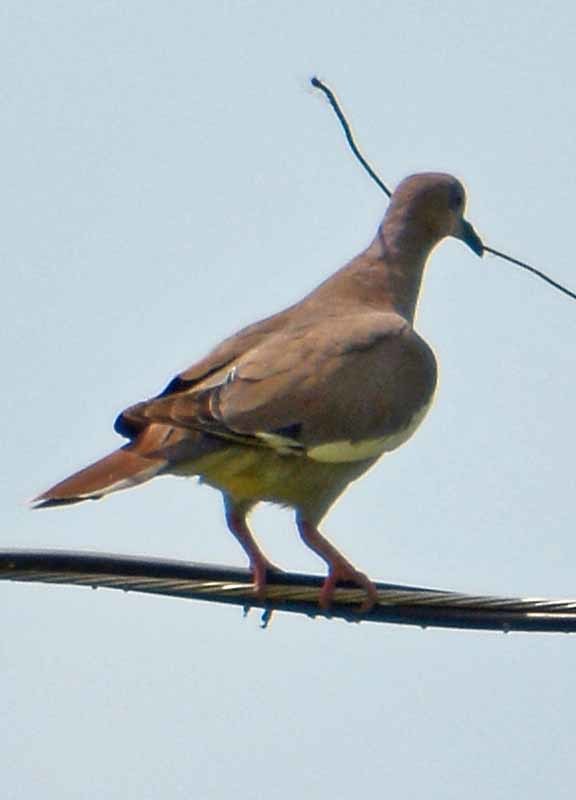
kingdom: Animalia
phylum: Chordata
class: Aves
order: Columbiformes
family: Columbidae
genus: Zenaida
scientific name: Zenaida asiatica
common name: White-winged dove
